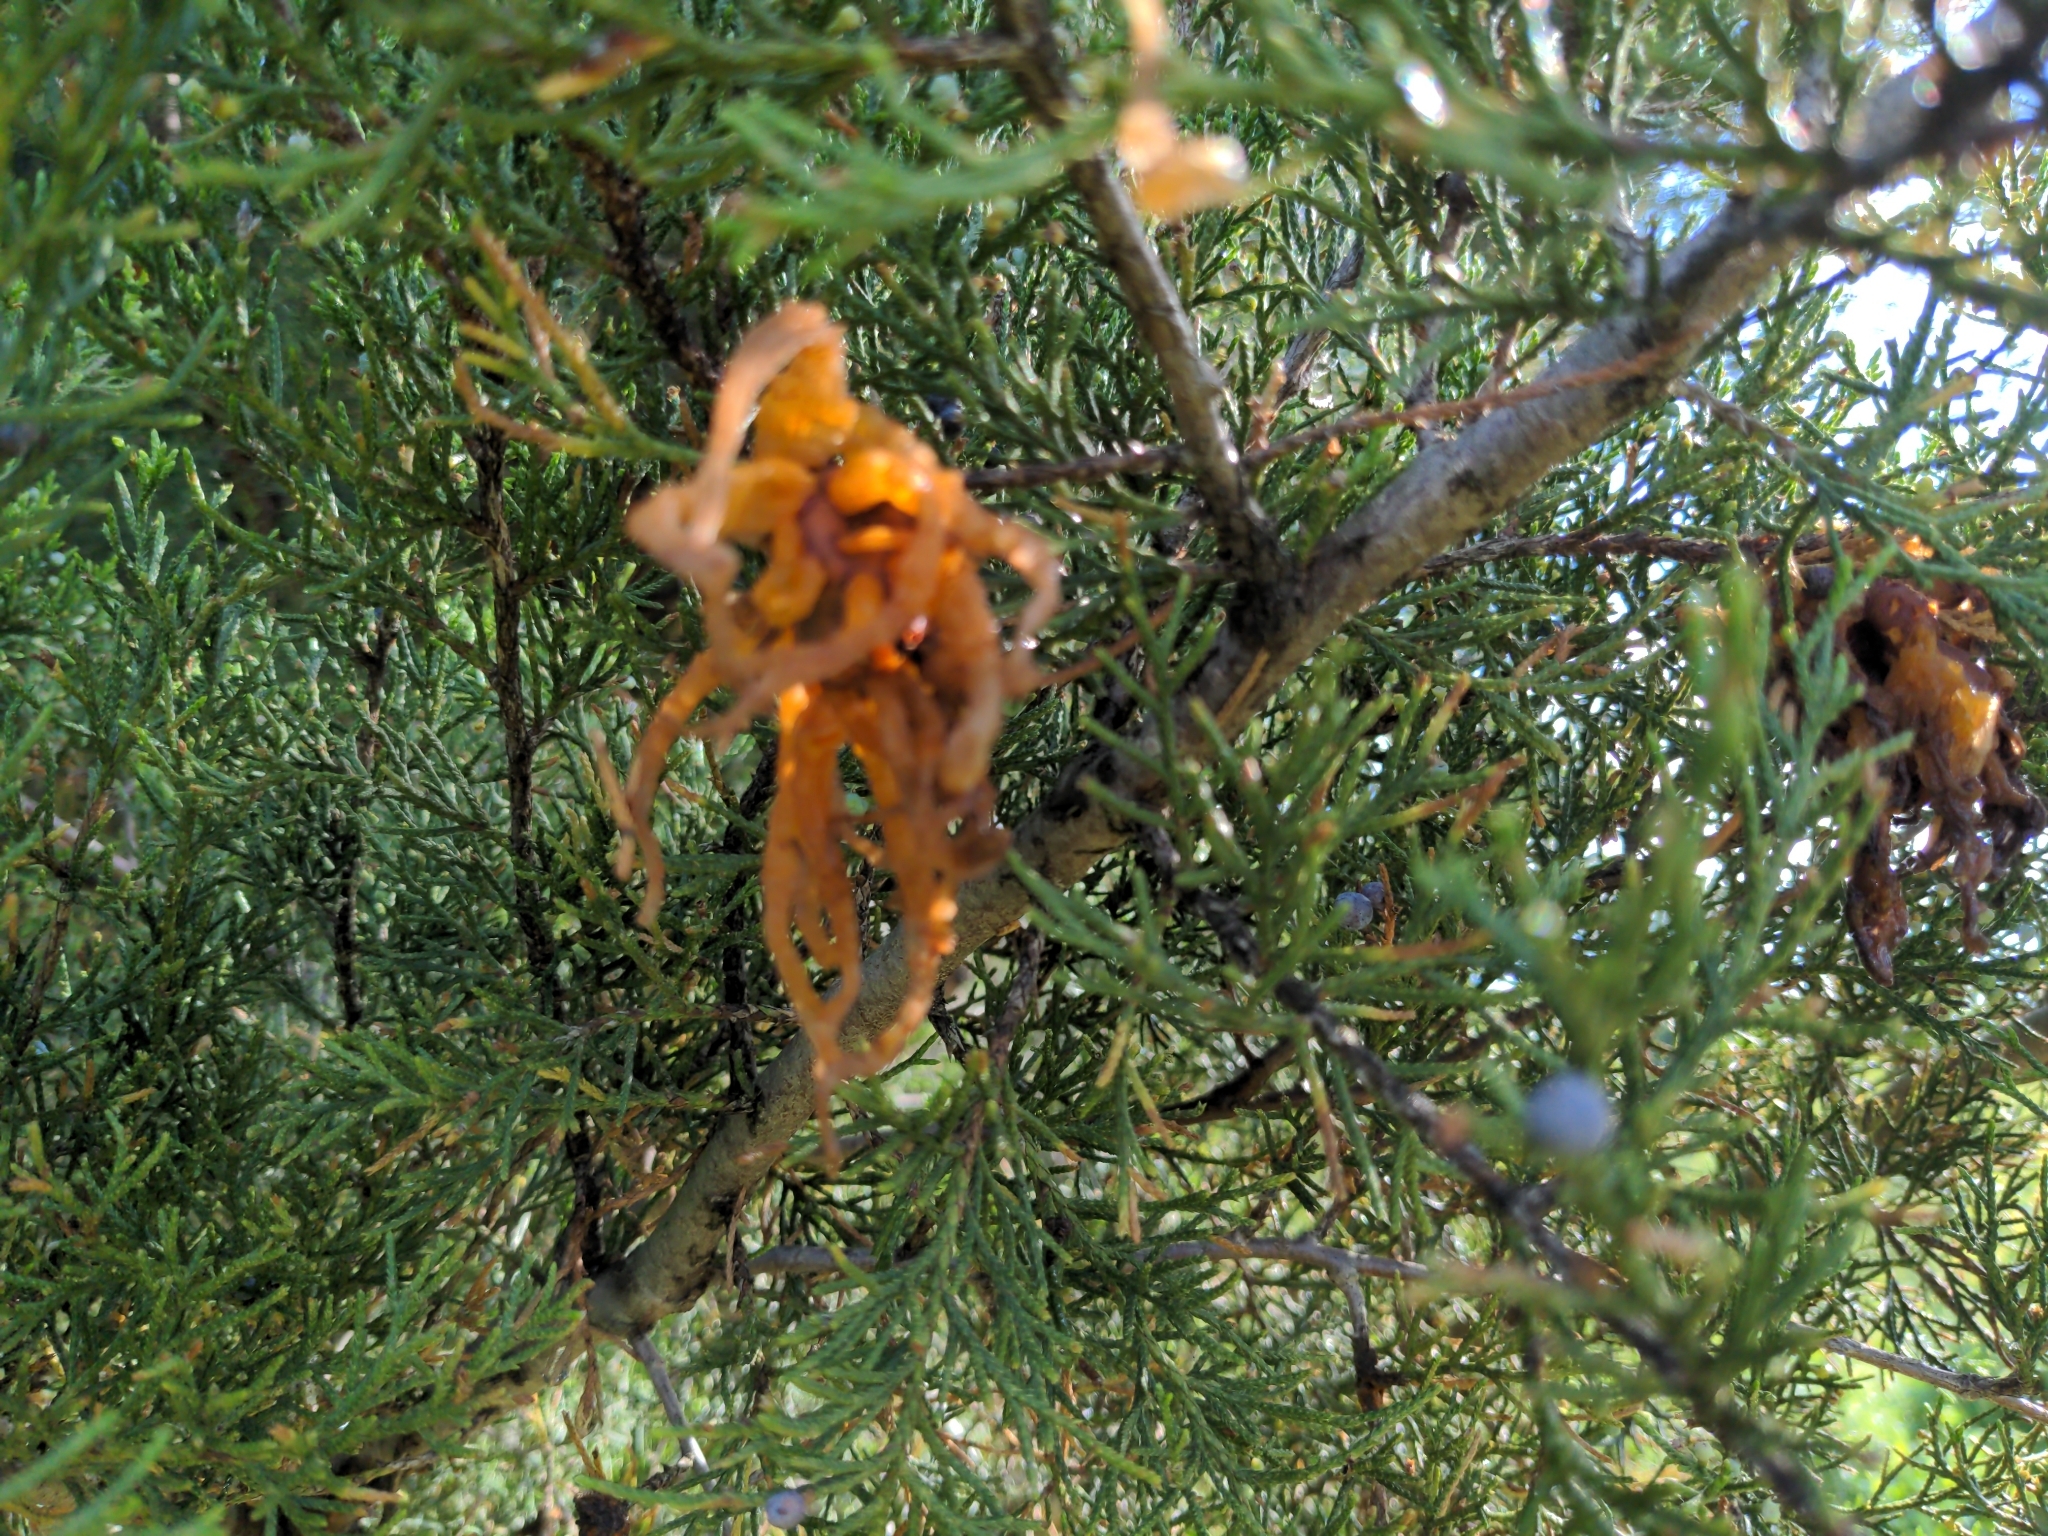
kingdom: Fungi
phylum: Basidiomycota
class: Pucciniomycetes
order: Pucciniales
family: Gymnosporangiaceae
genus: Gymnosporangium
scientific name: Gymnosporangium juniperi-virginianae
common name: Juniper-apple rust
